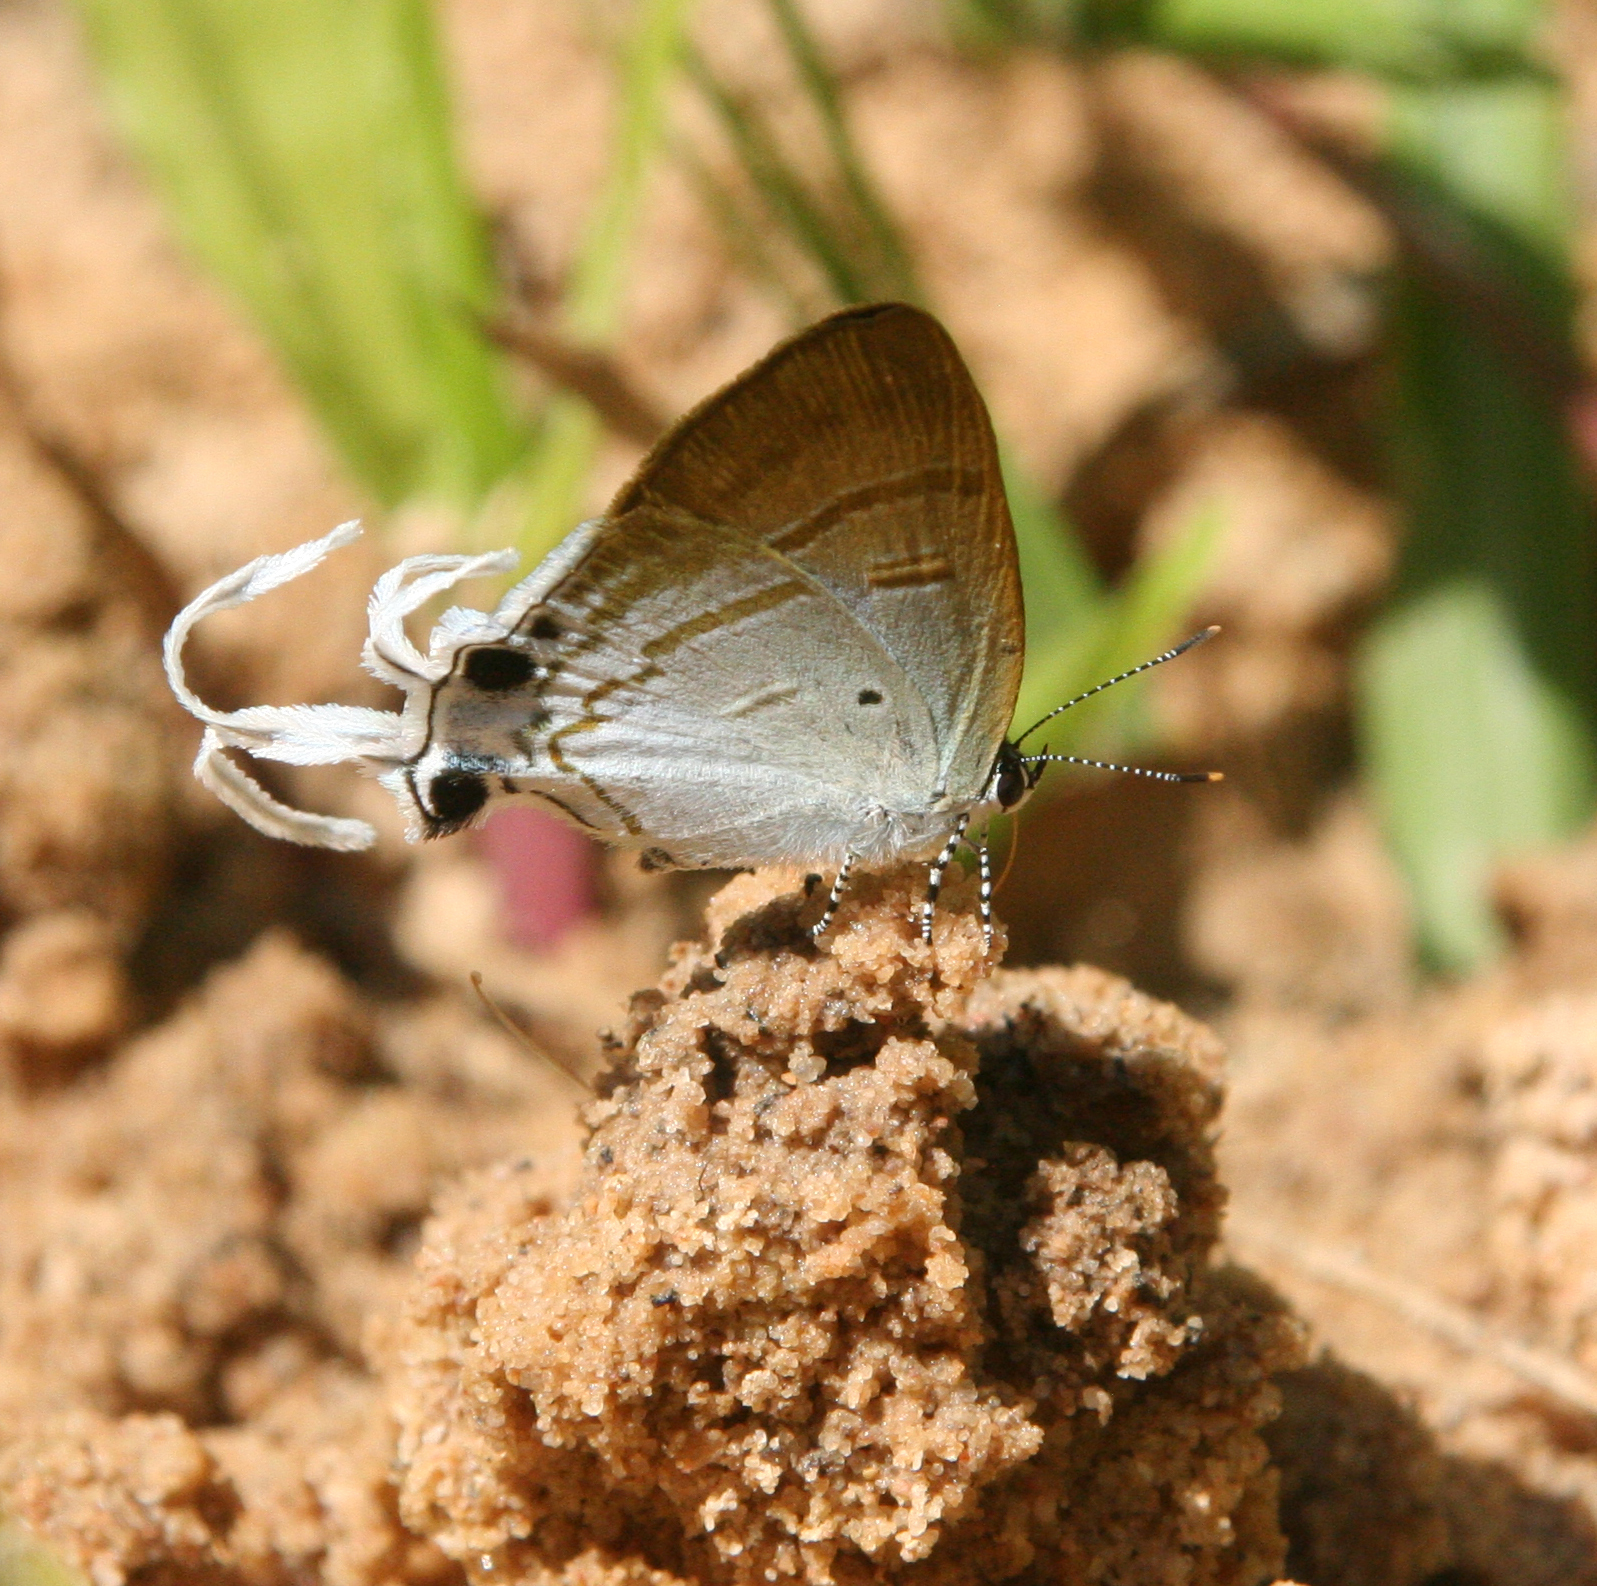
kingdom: Animalia
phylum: Arthropoda
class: Insecta
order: Lepidoptera
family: Lycaenidae
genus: Zeltus
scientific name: Zeltus amasa
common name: Fluffy tit
